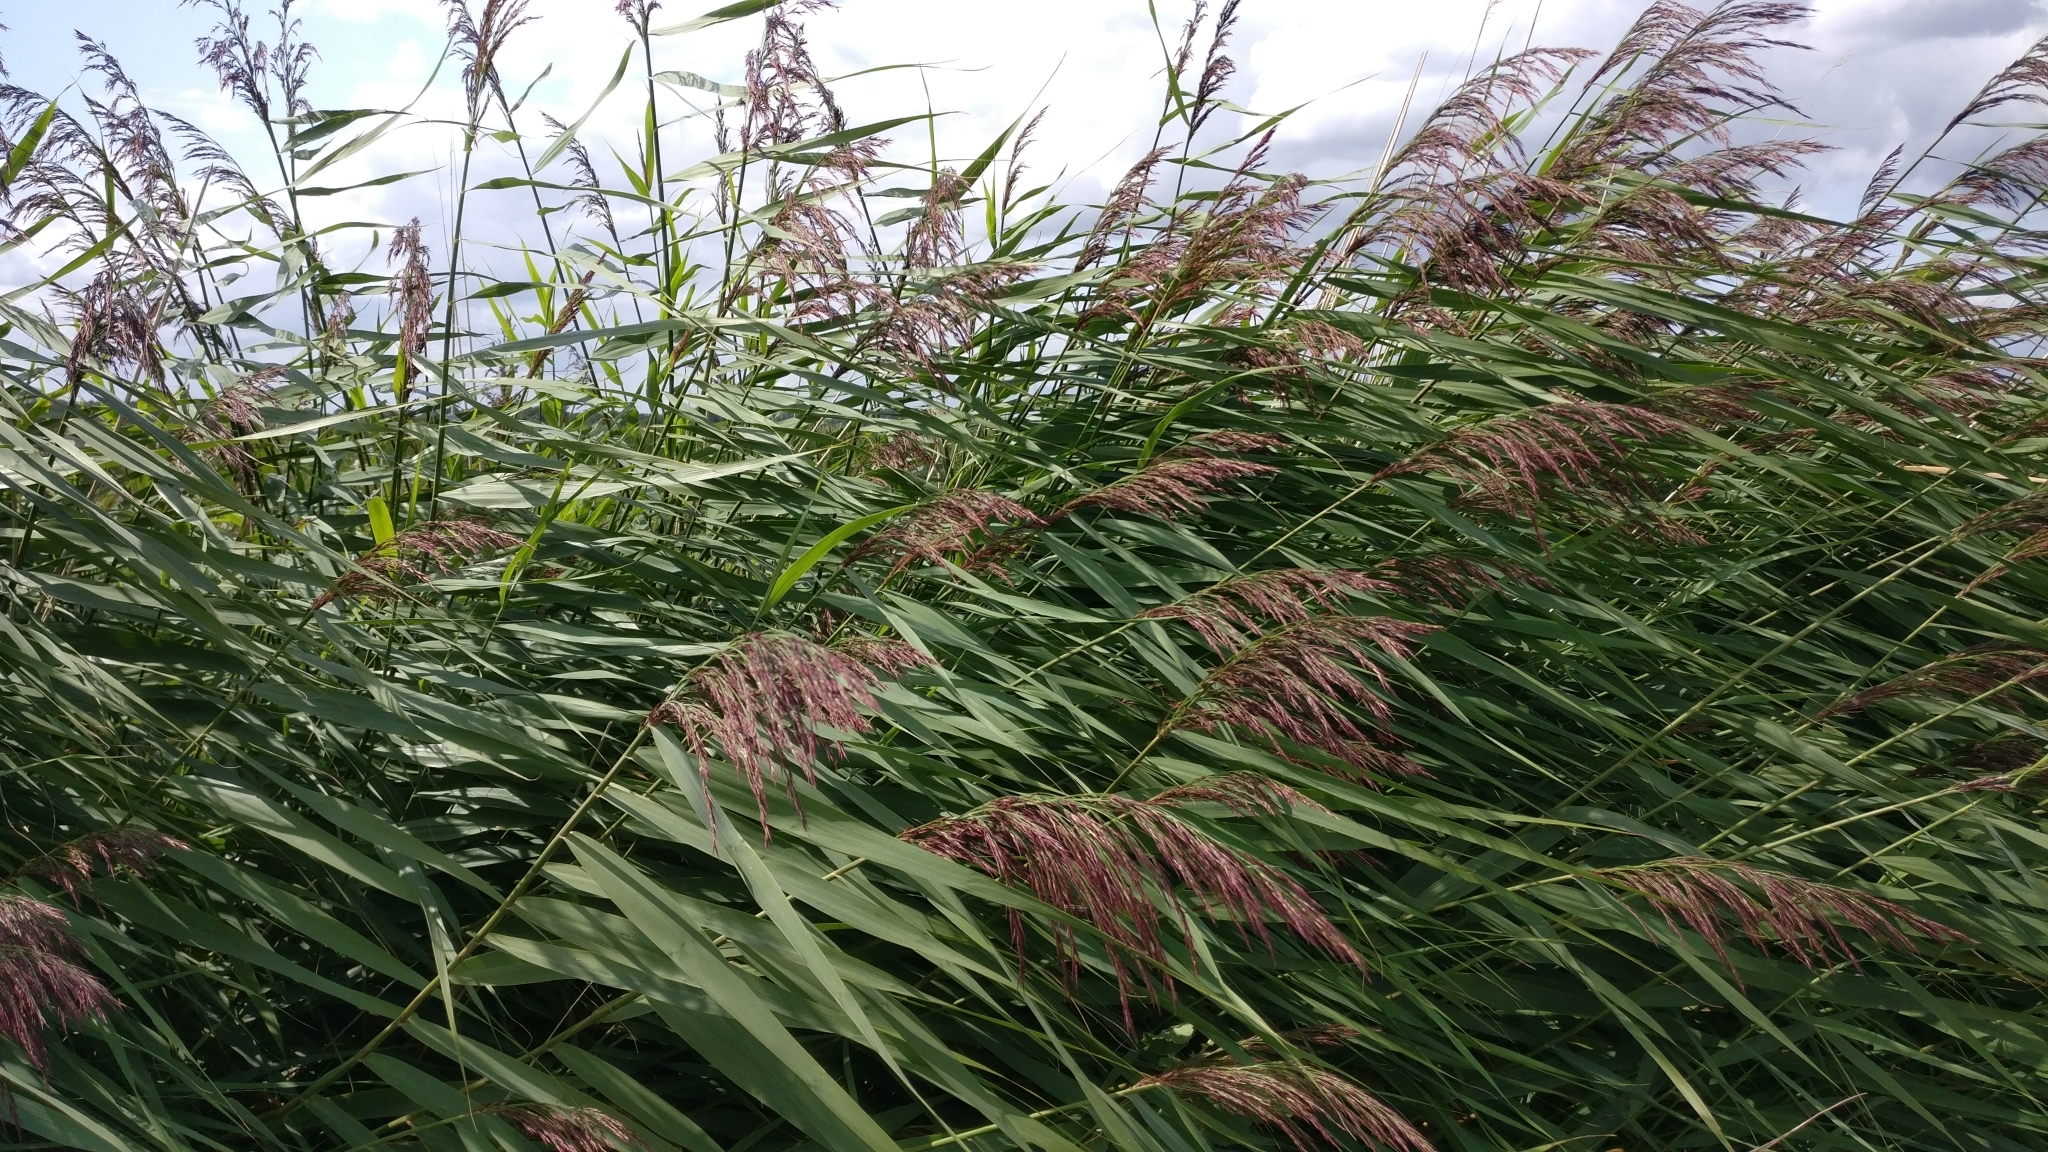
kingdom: Plantae
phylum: Tracheophyta
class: Liliopsida
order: Poales
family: Poaceae
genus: Phragmites
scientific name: Phragmites australis
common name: Common reed
